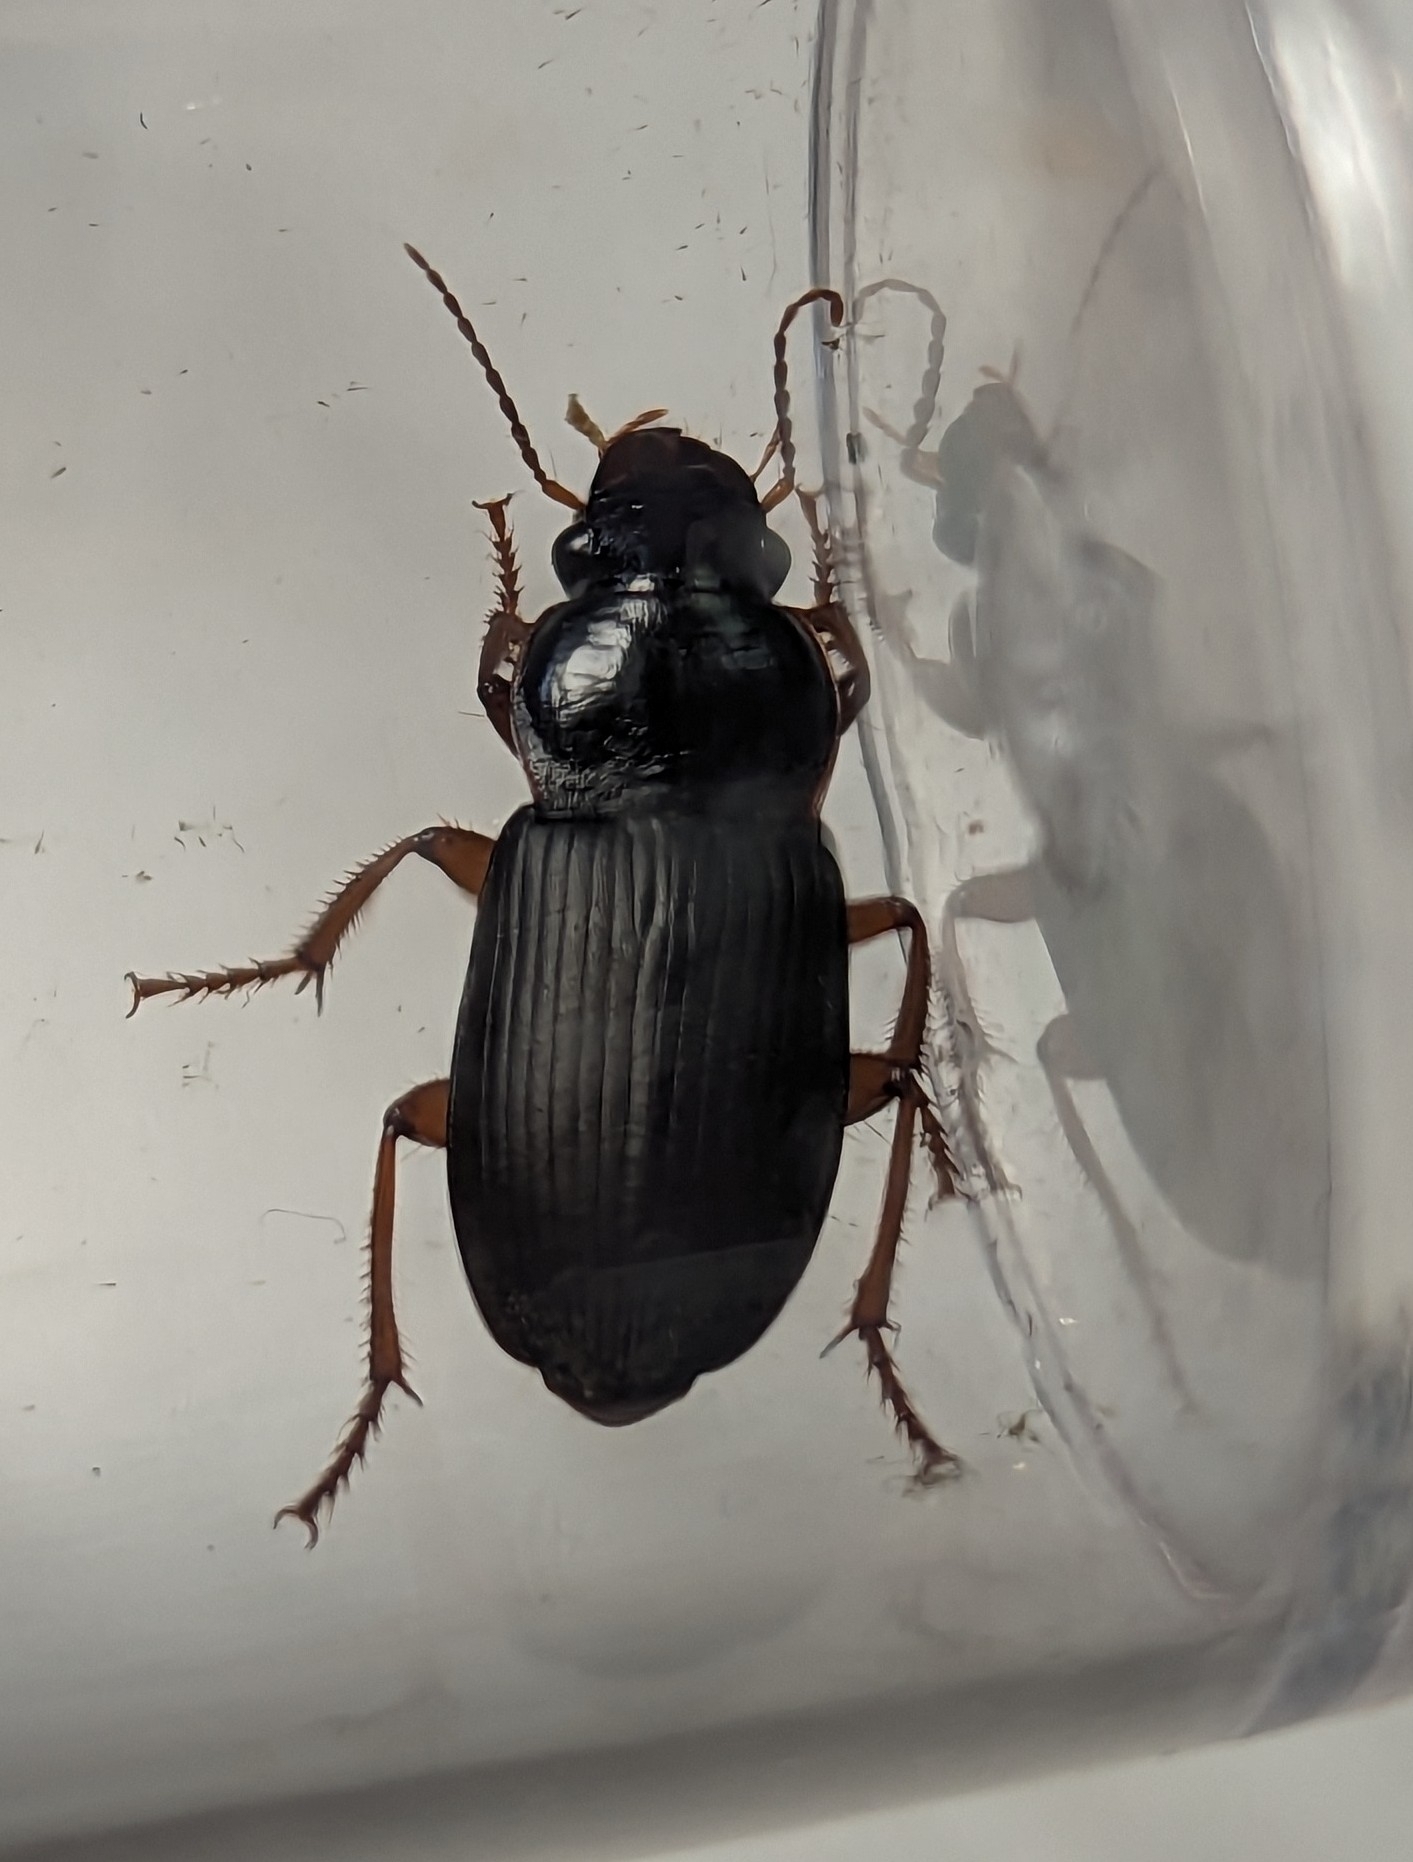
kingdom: Animalia
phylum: Arthropoda
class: Insecta
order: Coleoptera
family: Carabidae
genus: Harpalus
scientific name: Harpalus rufipes
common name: Strawberry harp ground beetle
